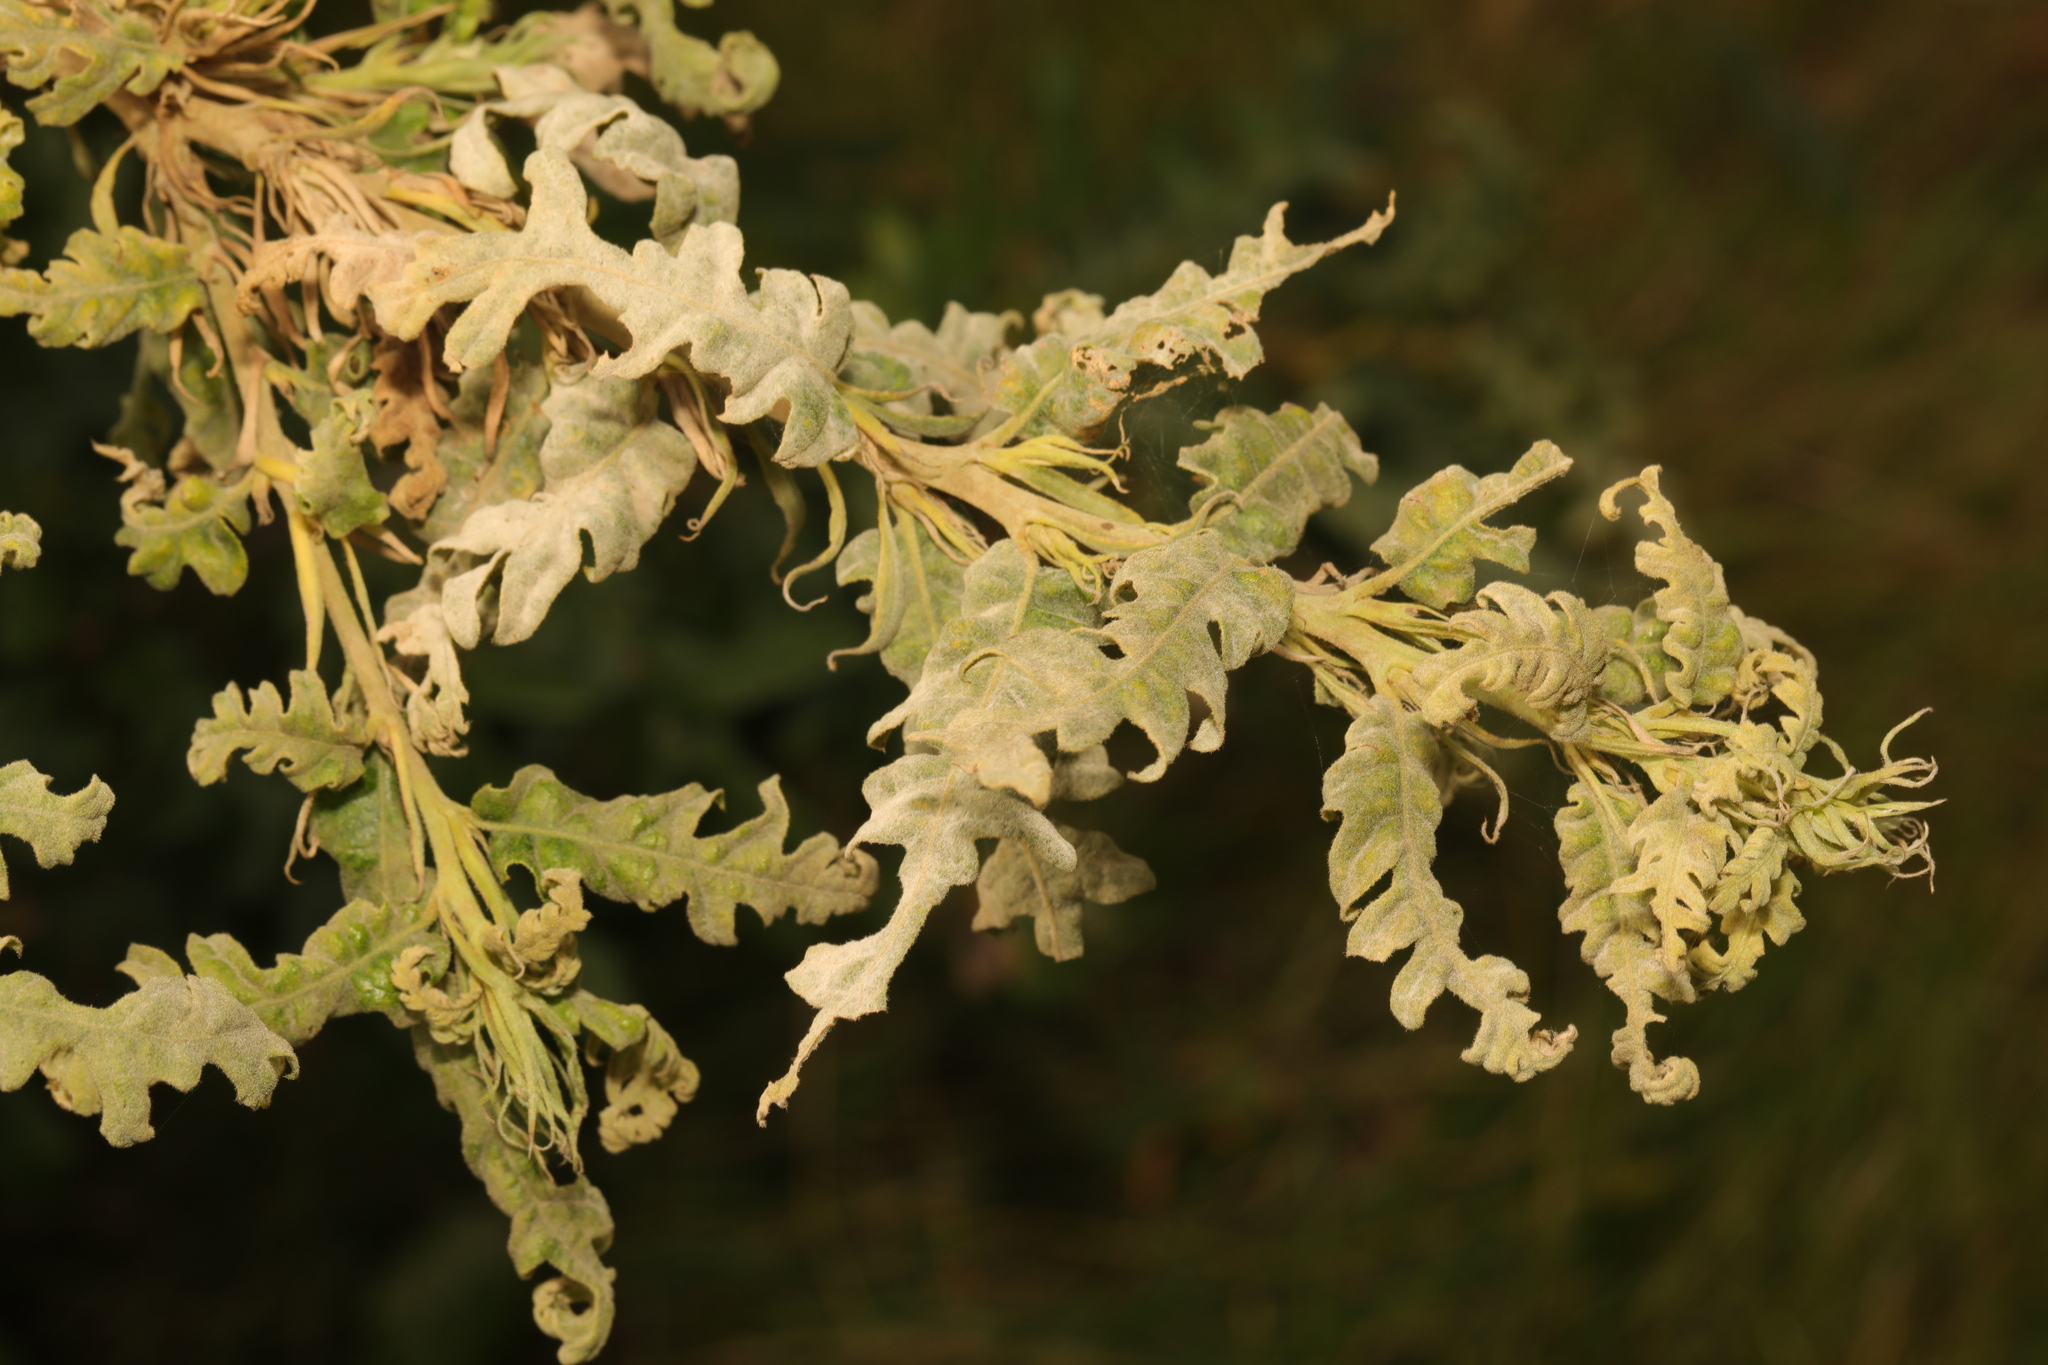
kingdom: Fungi
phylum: Ascomycota
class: Leotiomycetes
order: Helotiales
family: Erysiphaceae
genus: Erysiphe
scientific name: Erysiphe alphitoides
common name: Oak mildew
